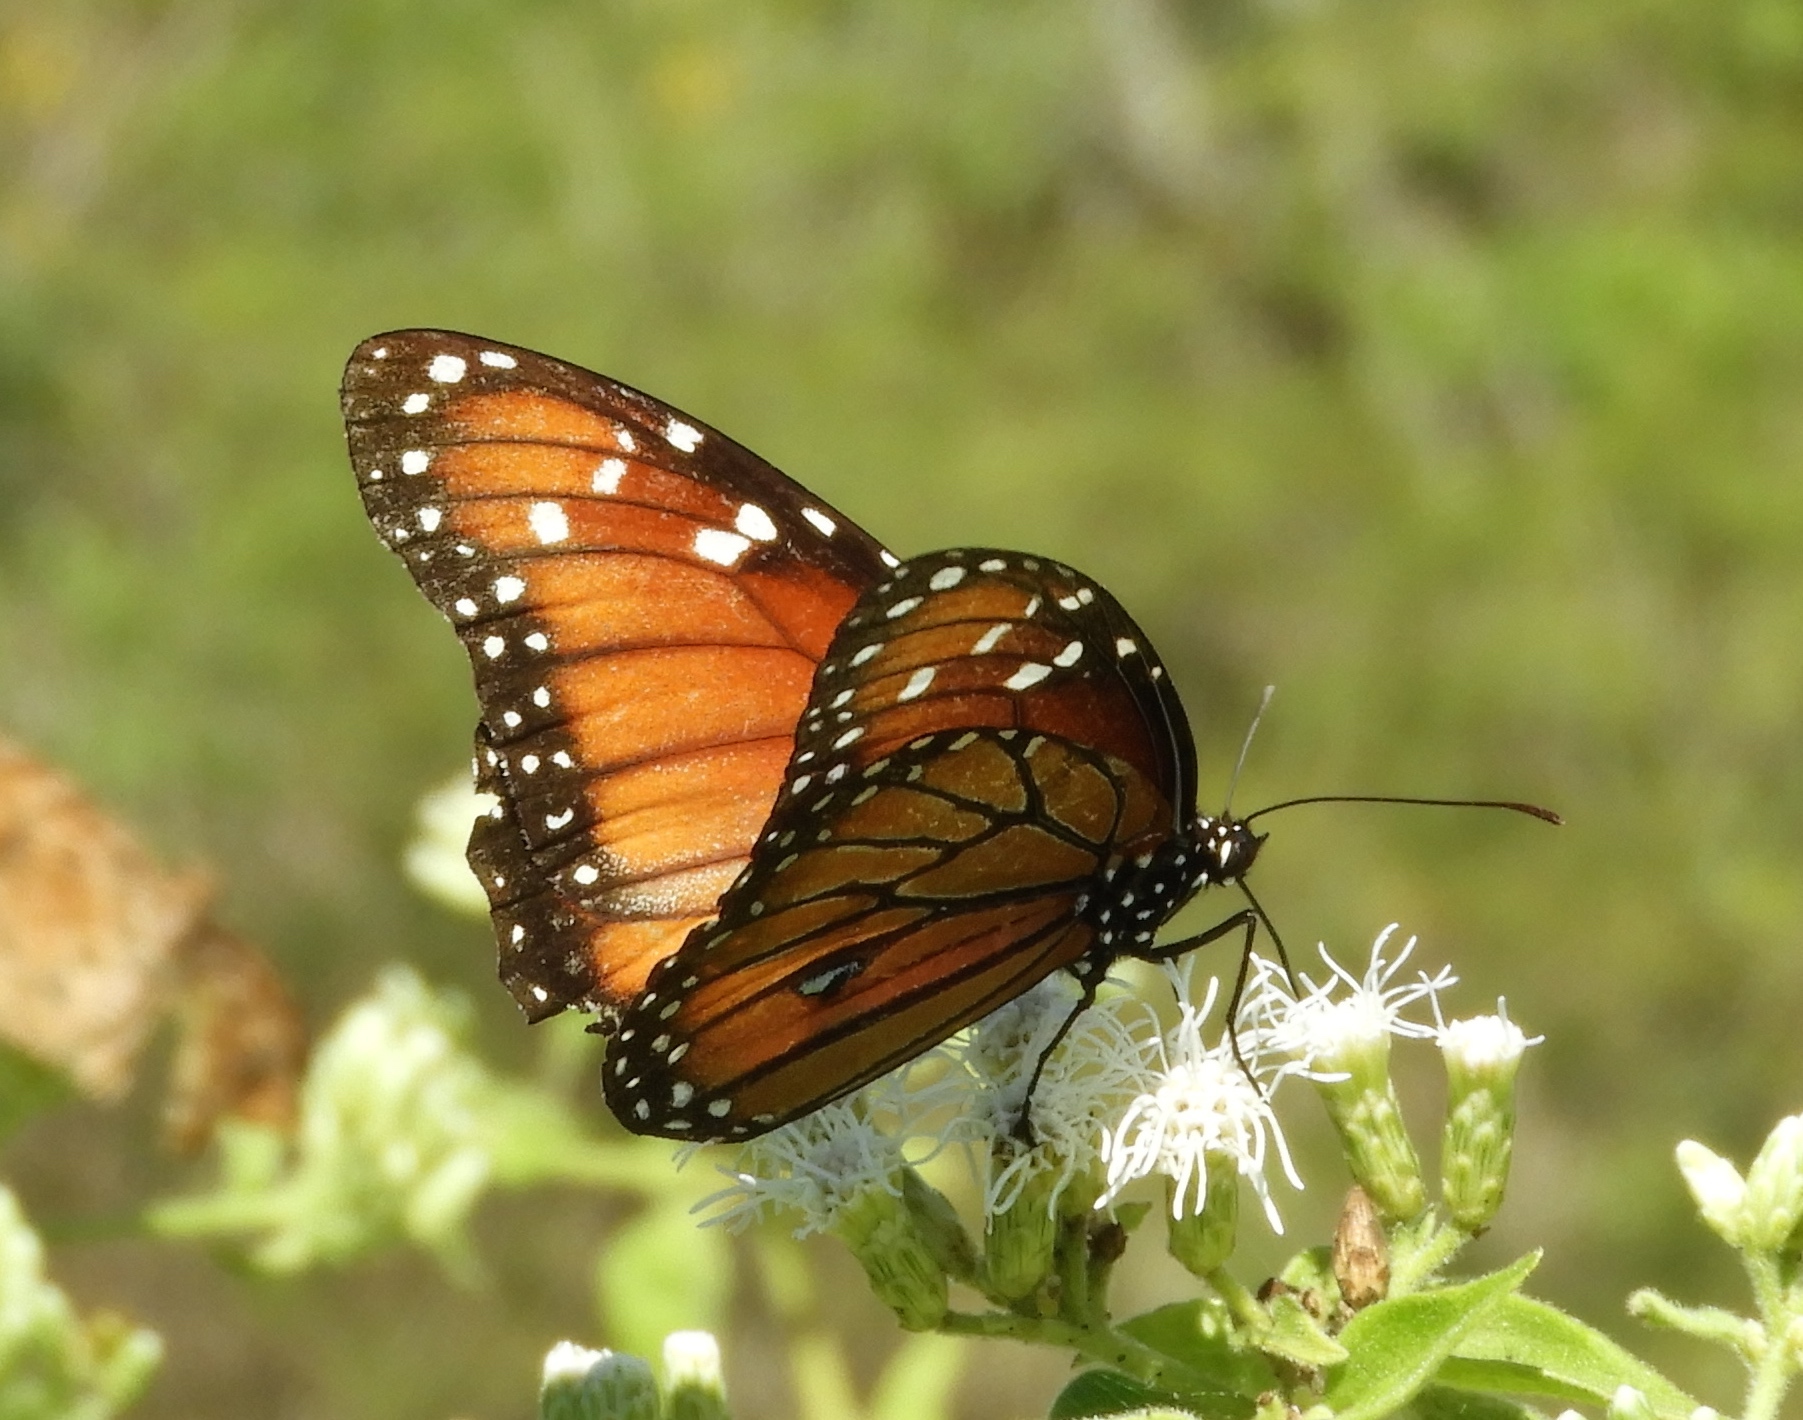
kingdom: Animalia
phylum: Arthropoda
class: Insecta
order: Lepidoptera
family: Nymphalidae
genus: Danaus
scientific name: Danaus eresimus
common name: Soldier
